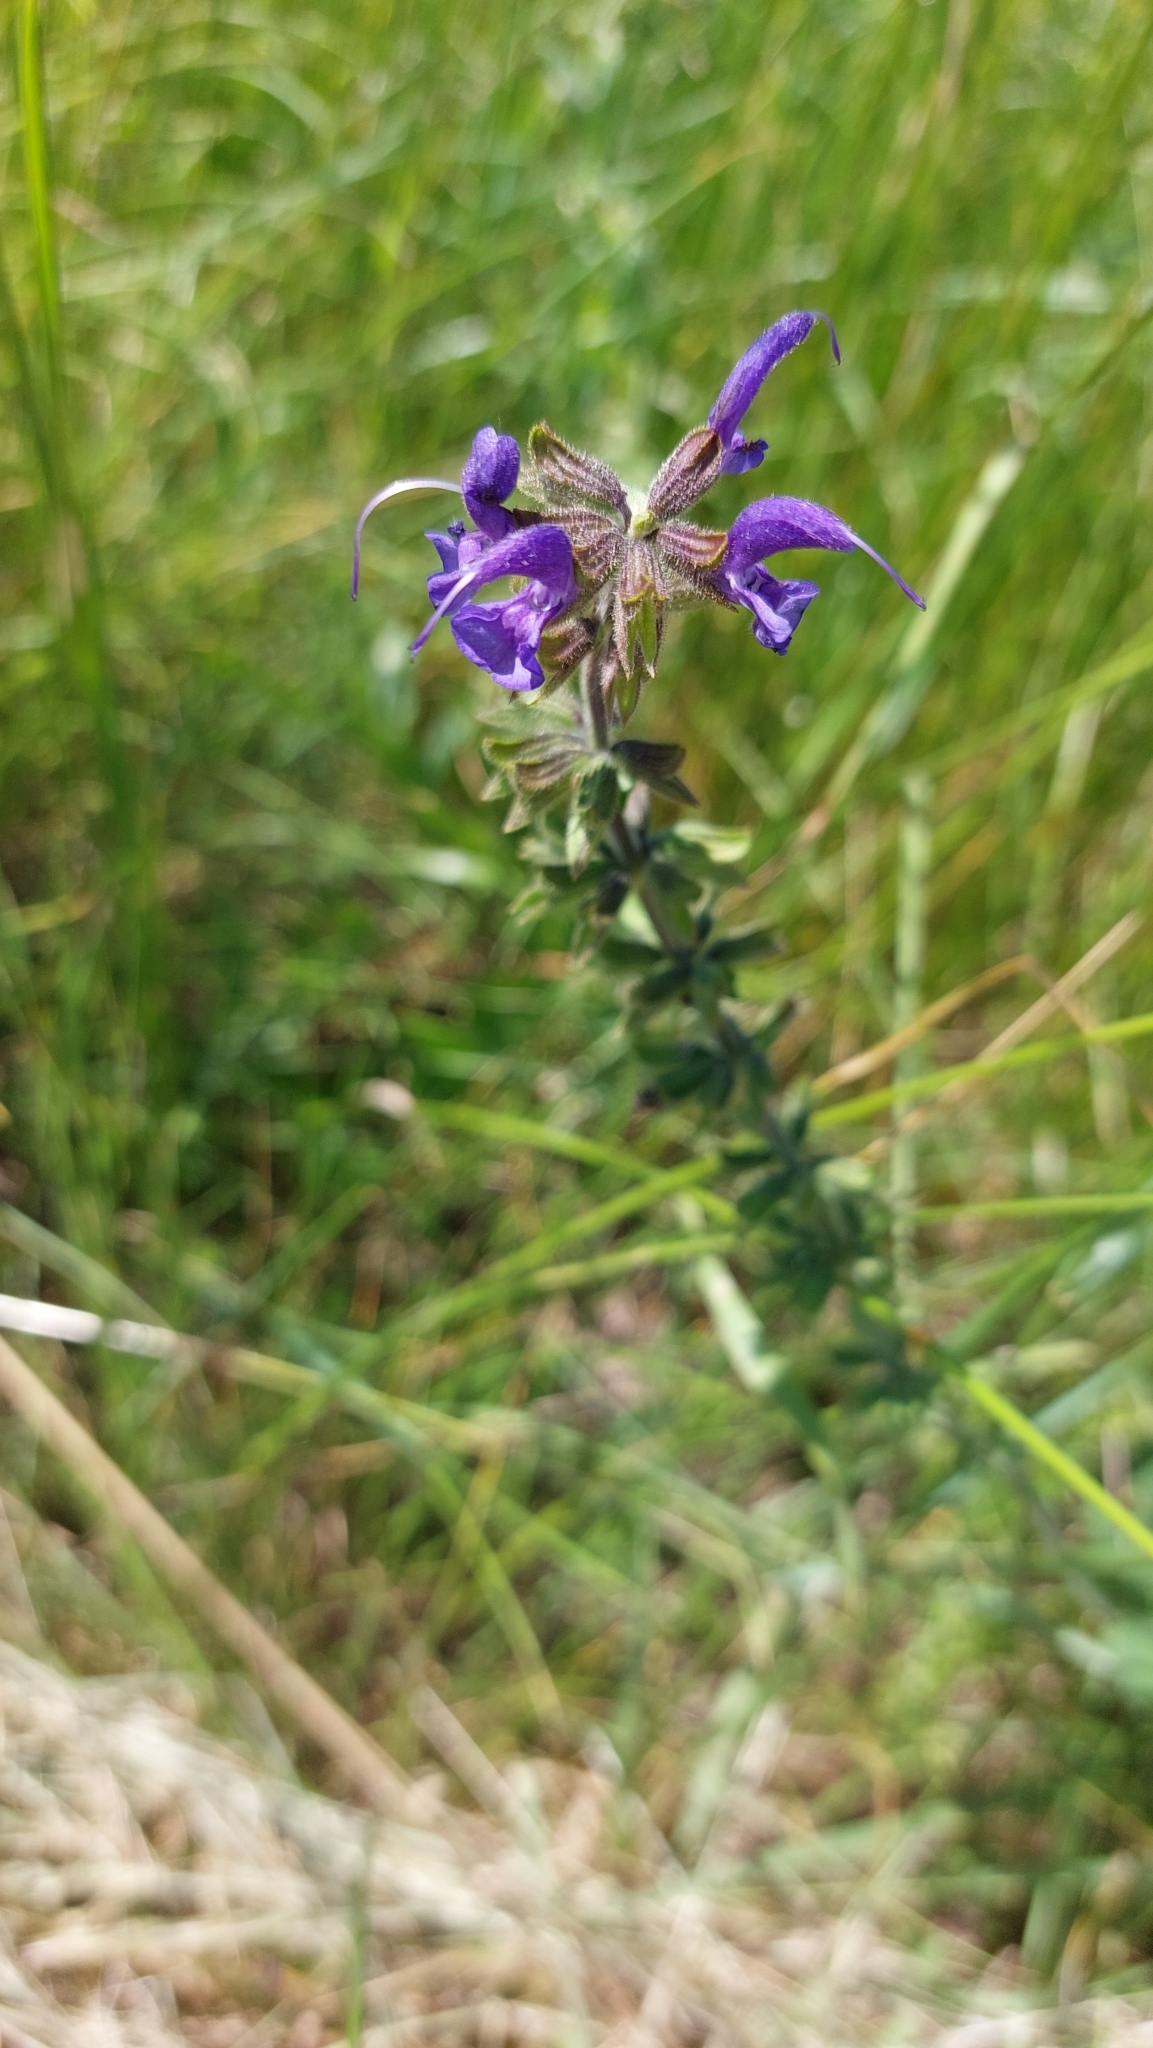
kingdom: Plantae
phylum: Tracheophyta
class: Magnoliopsida
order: Lamiales
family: Lamiaceae
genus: Salvia
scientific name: Salvia pratensis
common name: Meadow sage
